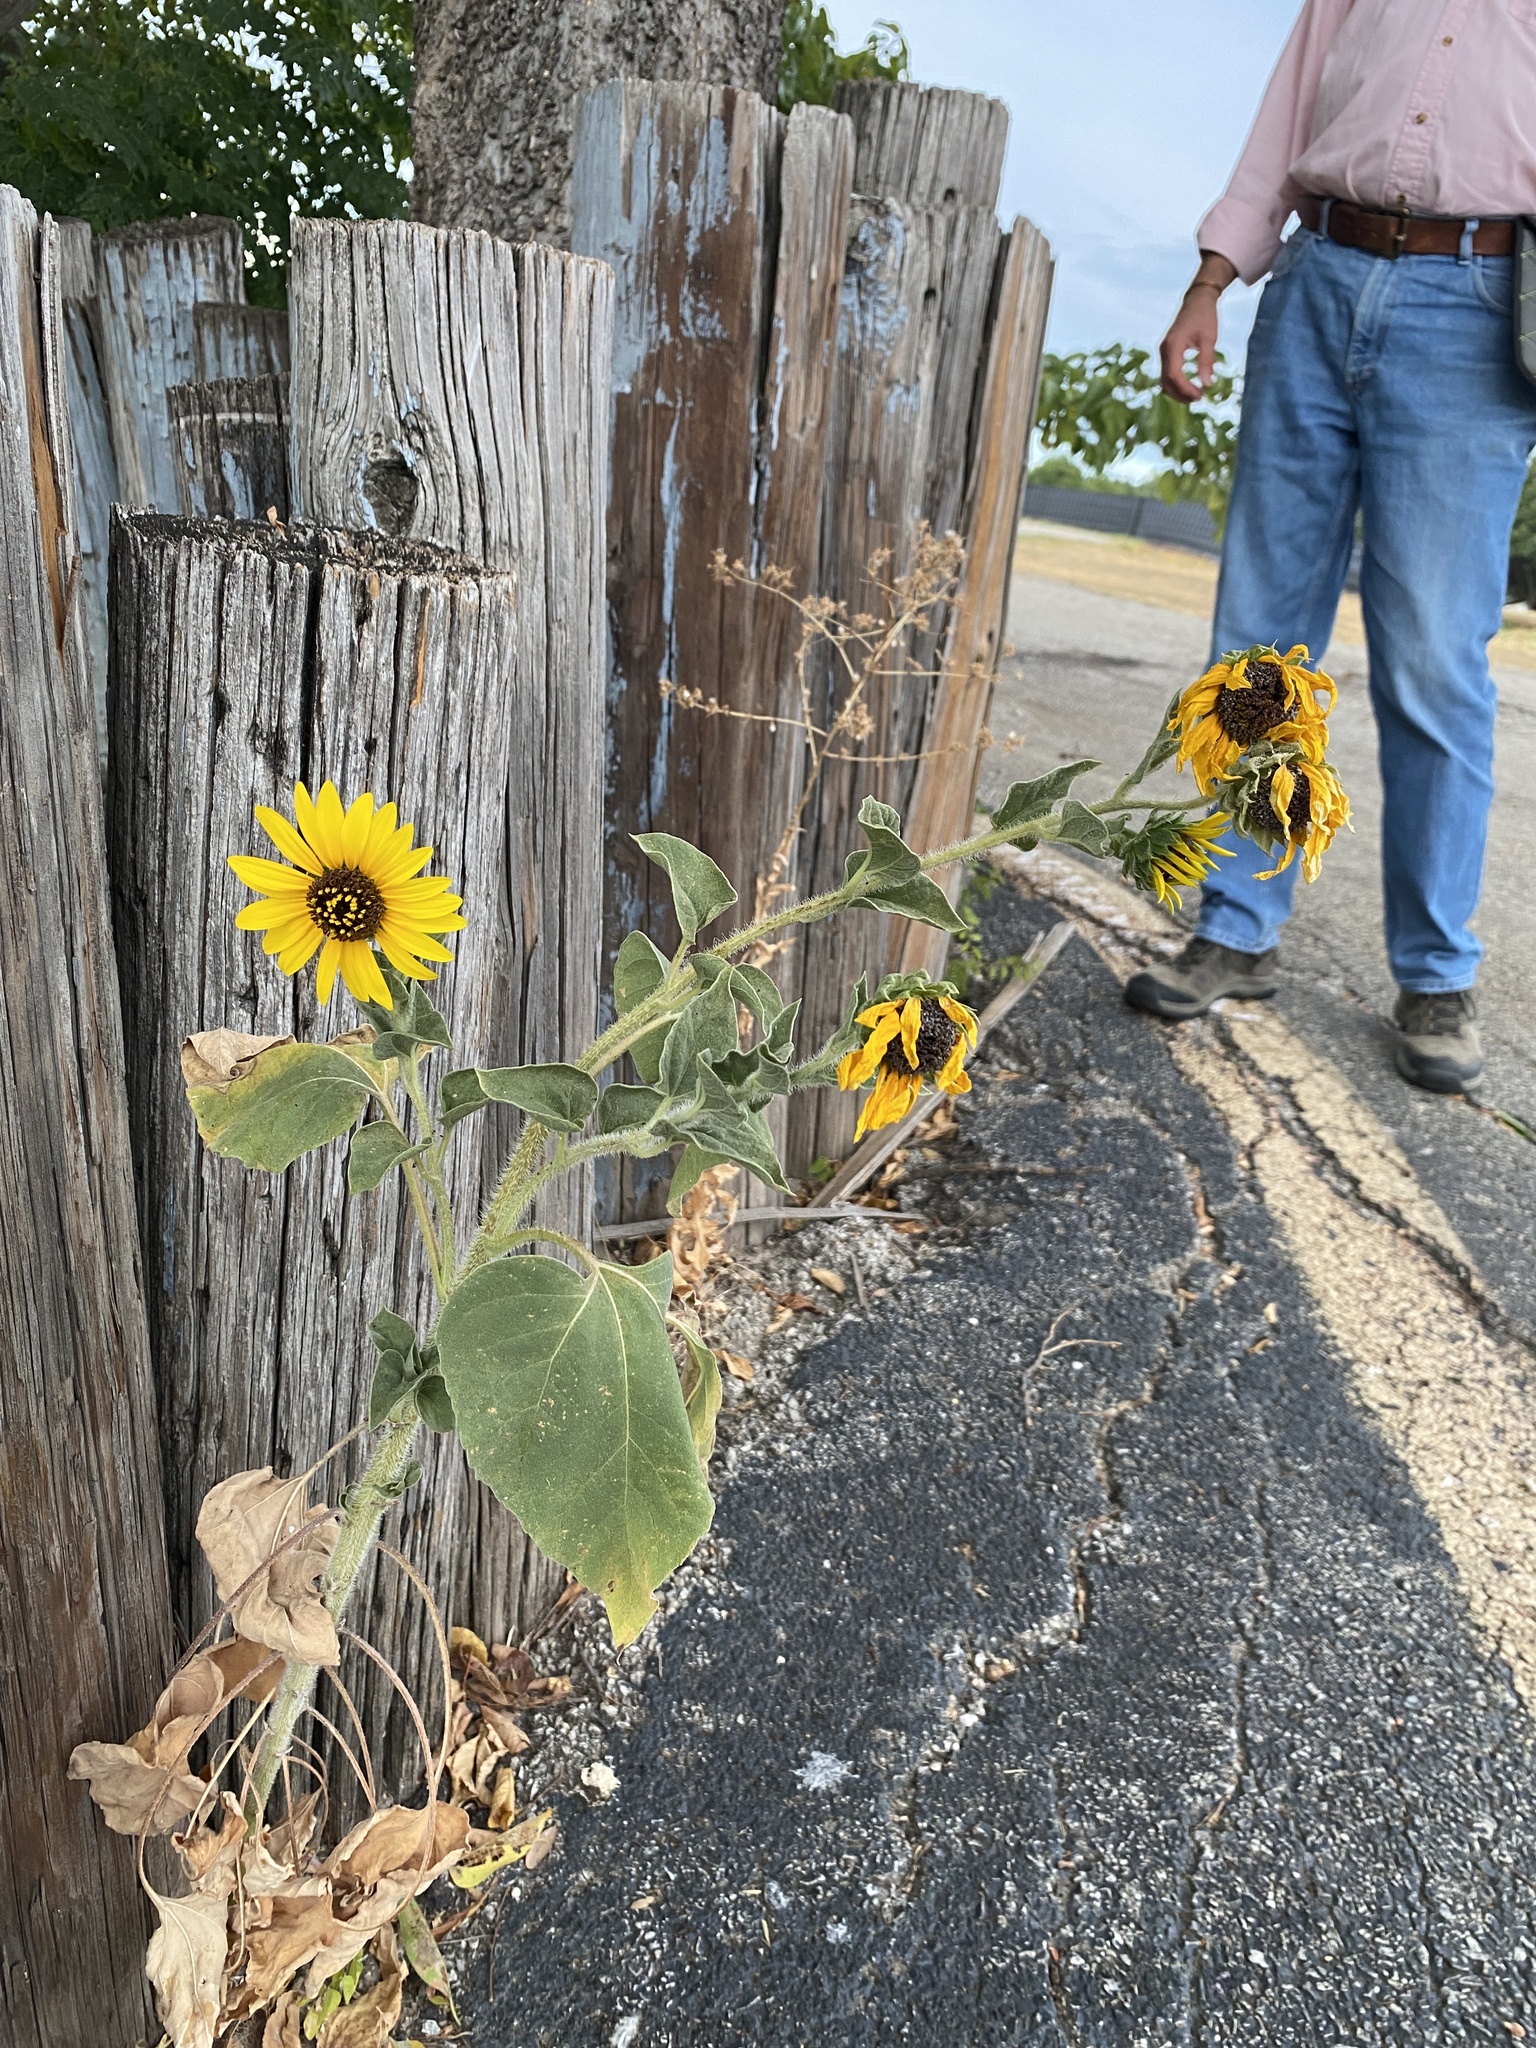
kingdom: Plantae
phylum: Tracheophyta
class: Magnoliopsida
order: Asterales
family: Asteraceae
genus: Helianthus
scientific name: Helianthus annuus
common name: Sunflower
